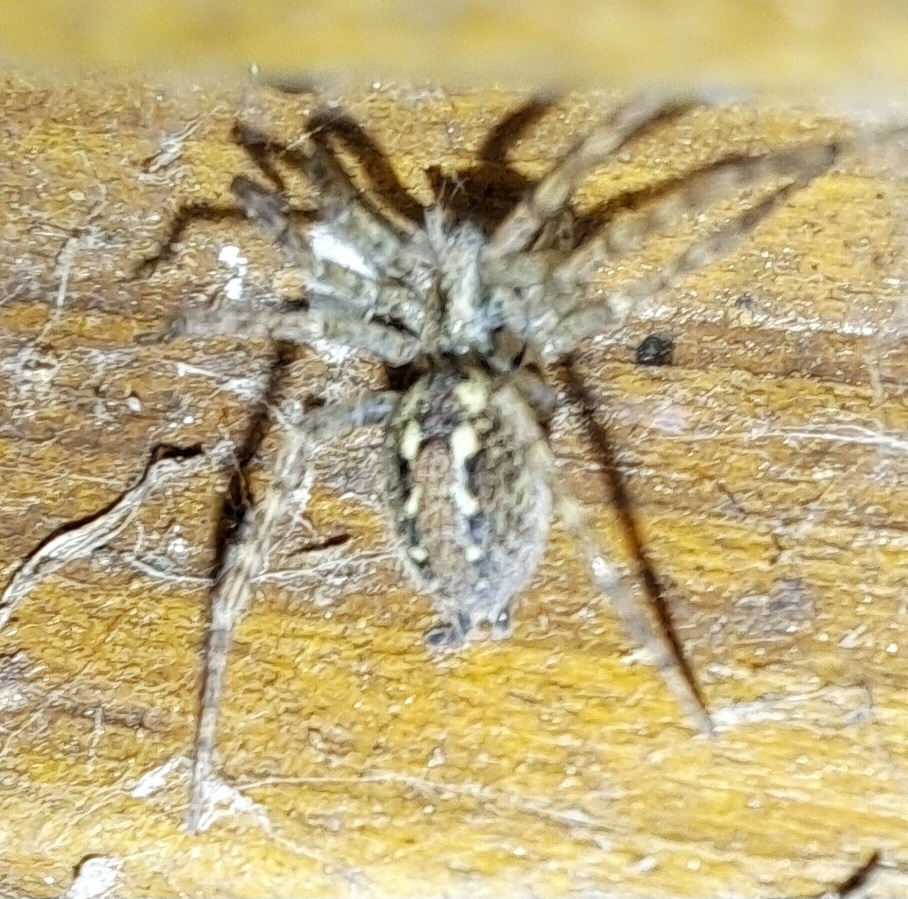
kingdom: Animalia
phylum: Arthropoda
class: Arachnida
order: Araneae
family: Agelenidae
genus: Tegenaria
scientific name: Tegenaria ferruginea
